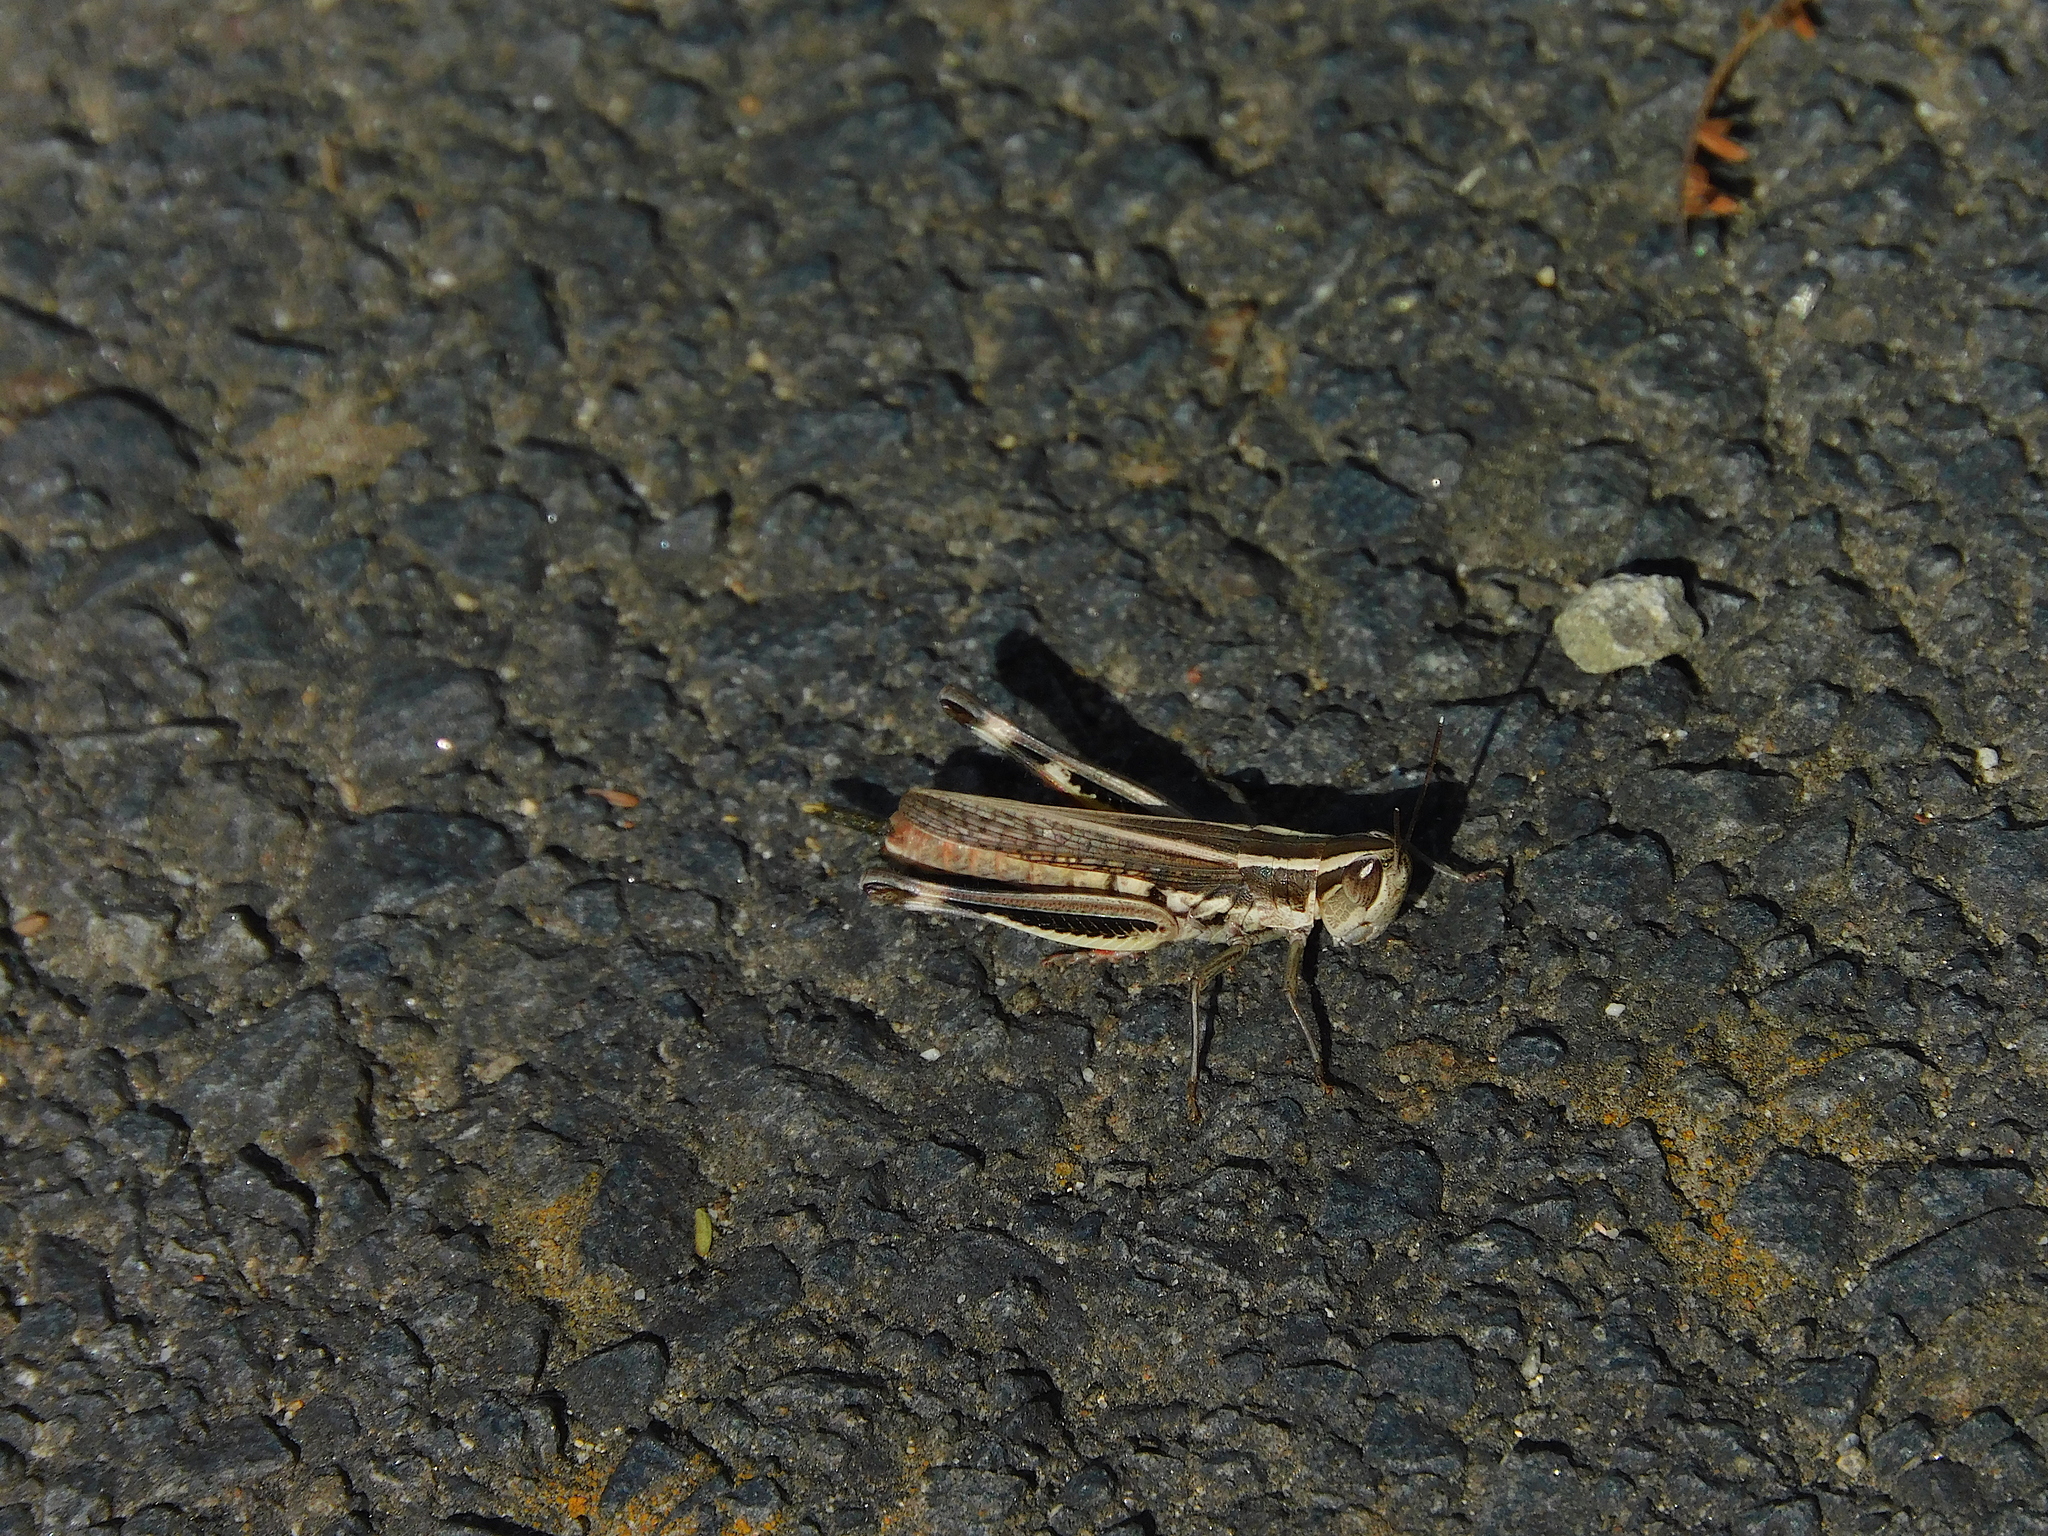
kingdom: Animalia
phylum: Arthropoda
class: Insecta
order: Orthoptera
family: Acrididae
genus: Macrotona
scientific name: Macrotona australis
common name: Common macrotona
